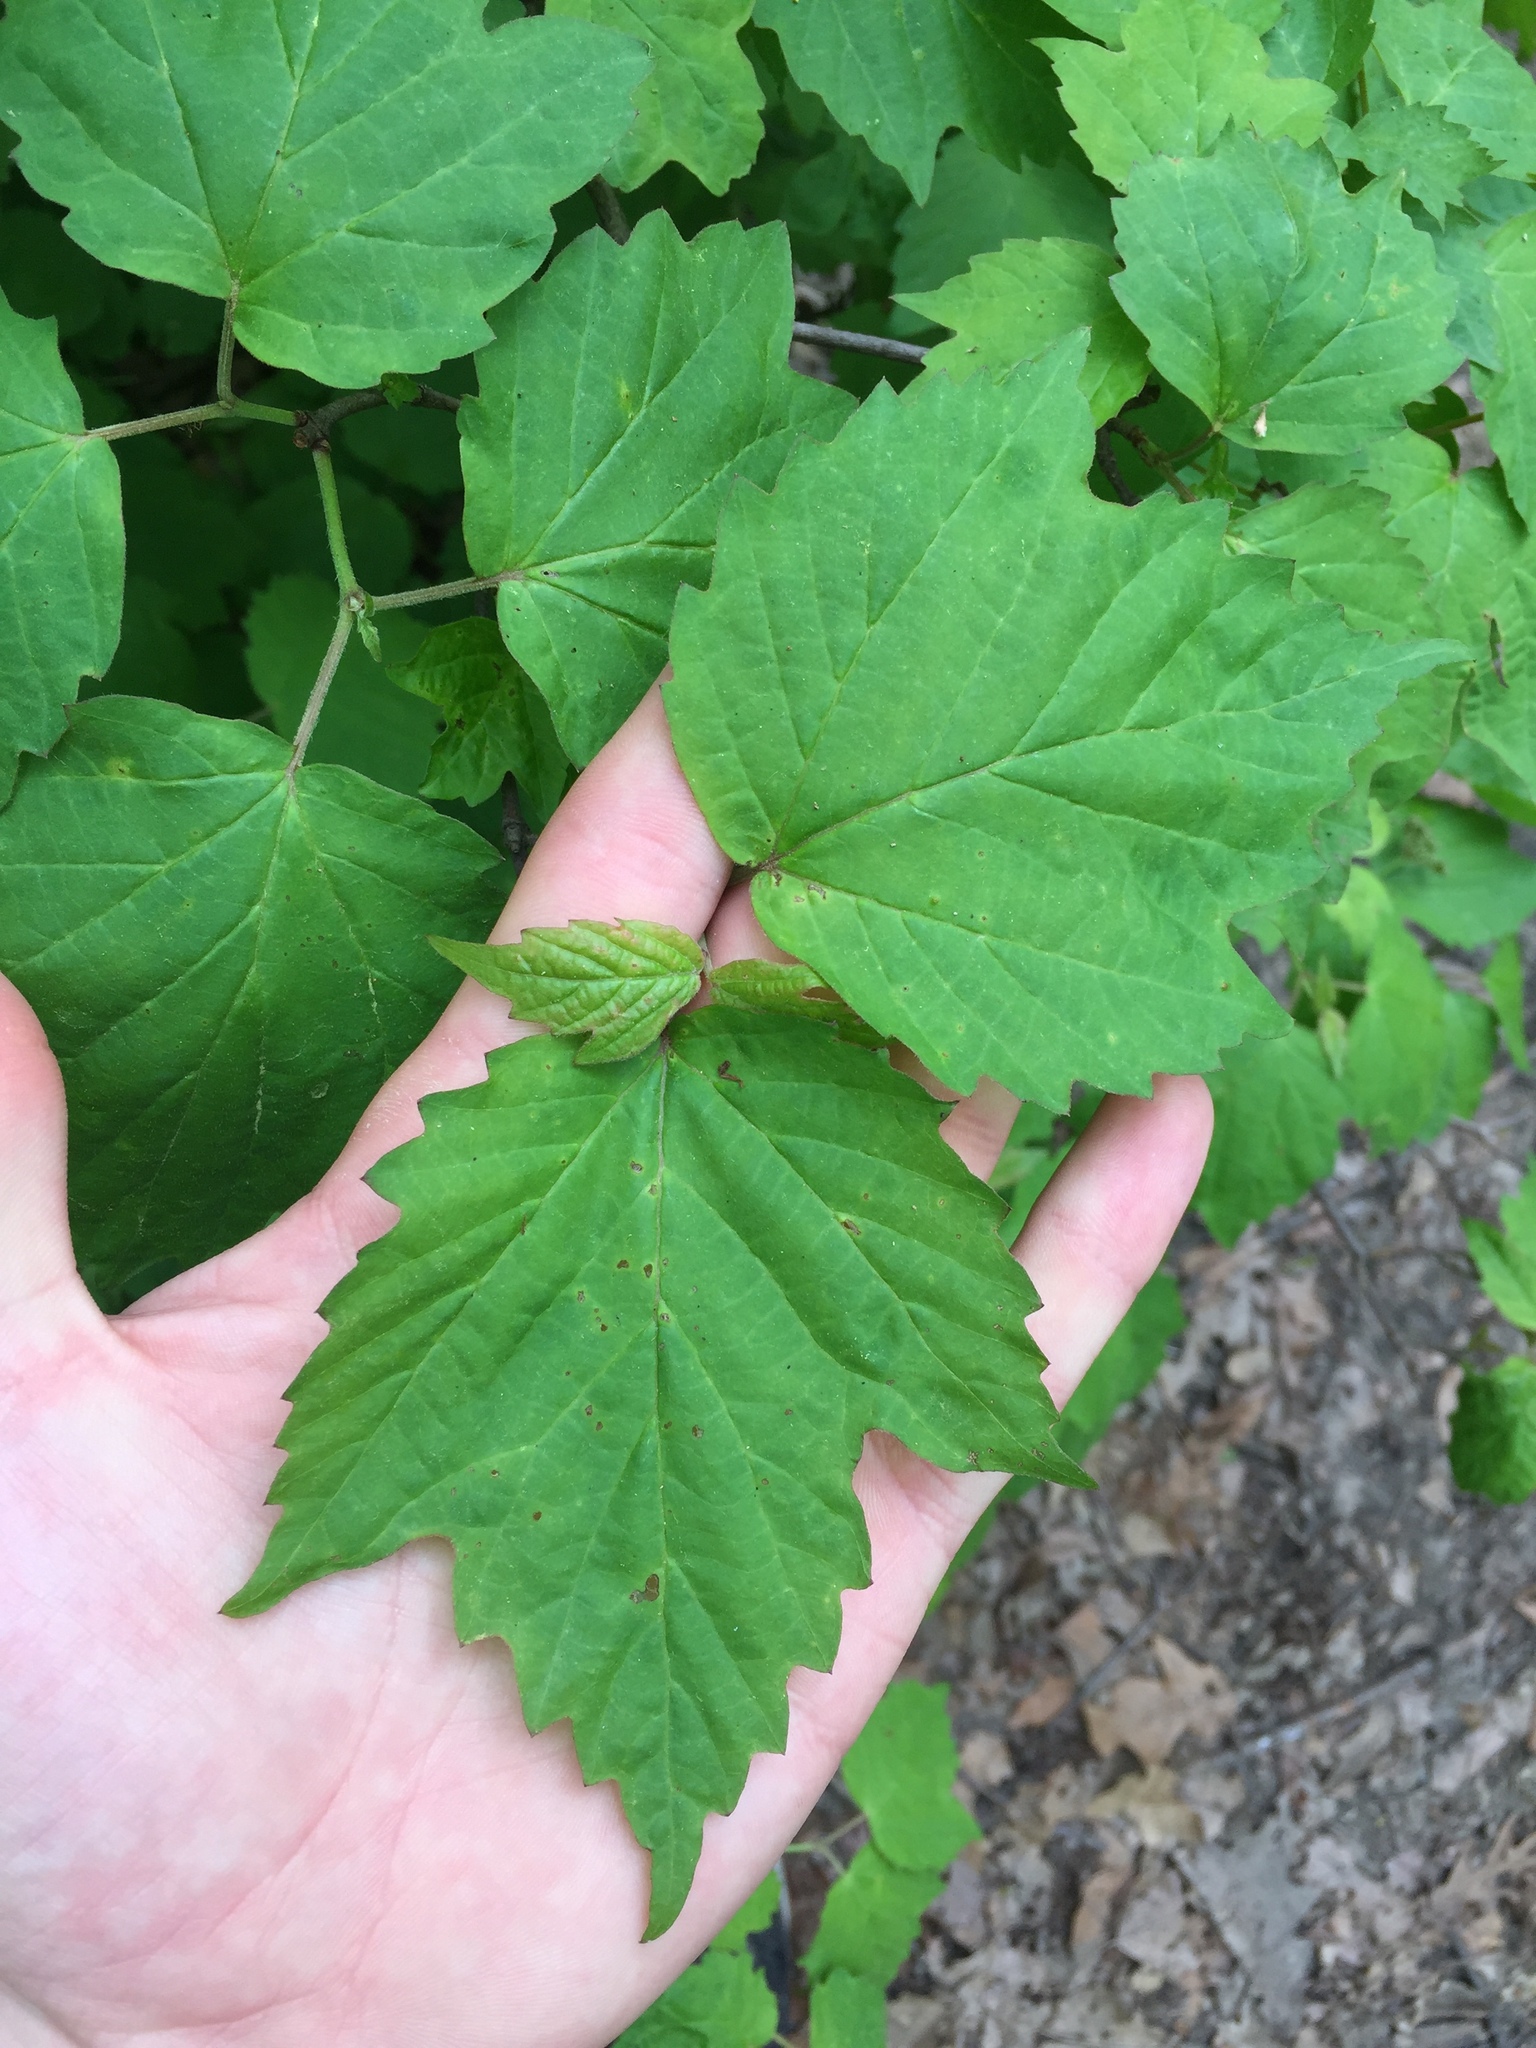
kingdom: Plantae
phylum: Tracheophyta
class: Magnoliopsida
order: Dipsacales
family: Viburnaceae
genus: Viburnum
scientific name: Viburnum acerifolium
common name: Dockmackie
